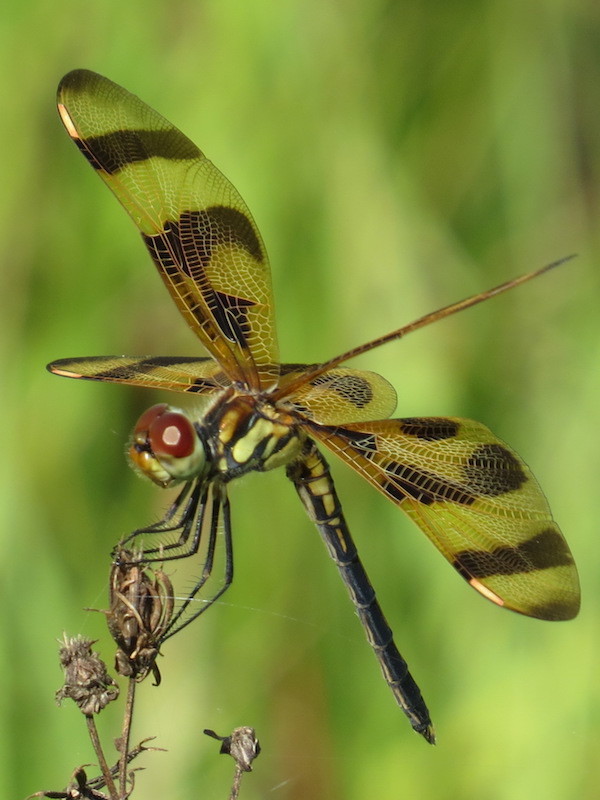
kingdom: Animalia
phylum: Arthropoda
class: Insecta
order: Odonata
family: Libellulidae
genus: Celithemis
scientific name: Celithemis eponina
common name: Halloween pennant
